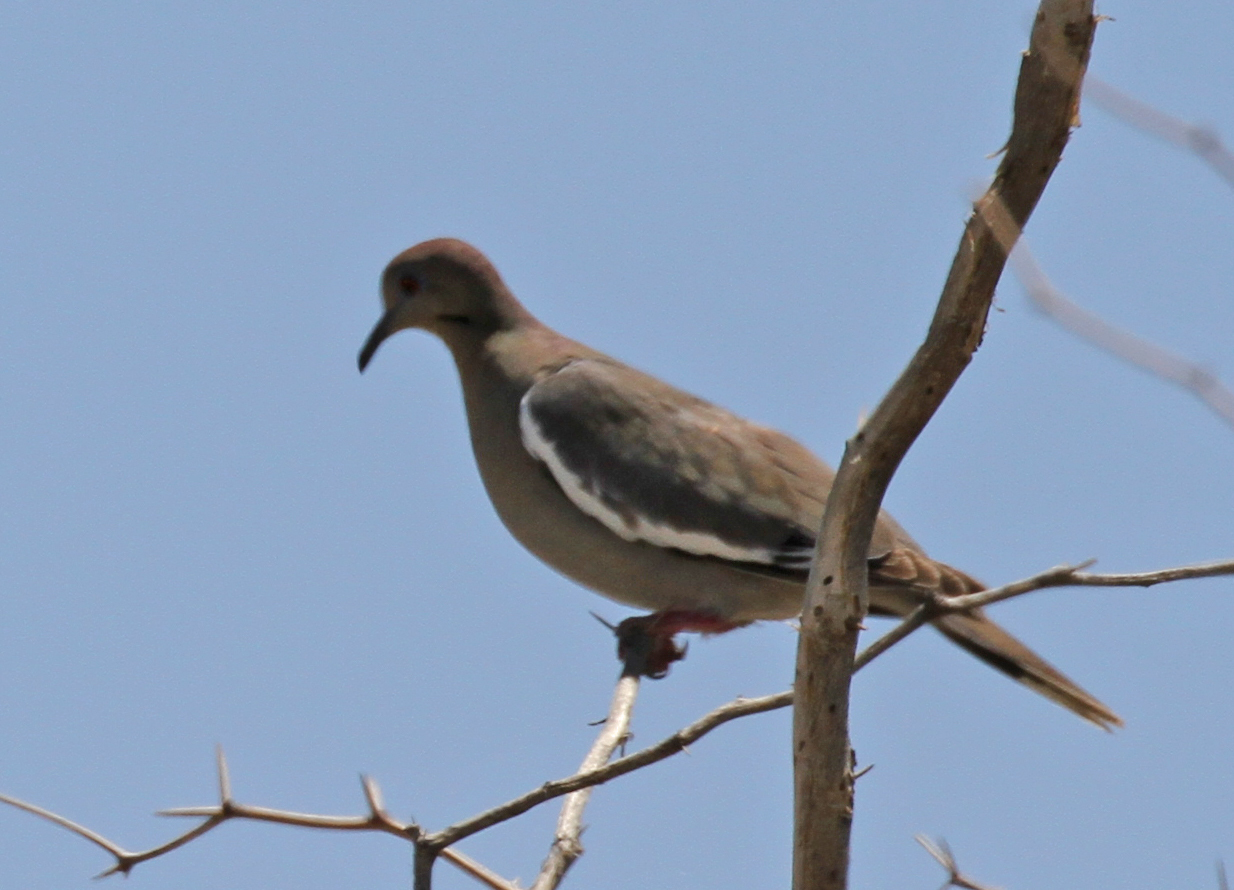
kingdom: Animalia
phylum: Chordata
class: Aves
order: Columbiformes
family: Columbidae
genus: Zenaida
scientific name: Zenaida asiatica
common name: White-winged dove
